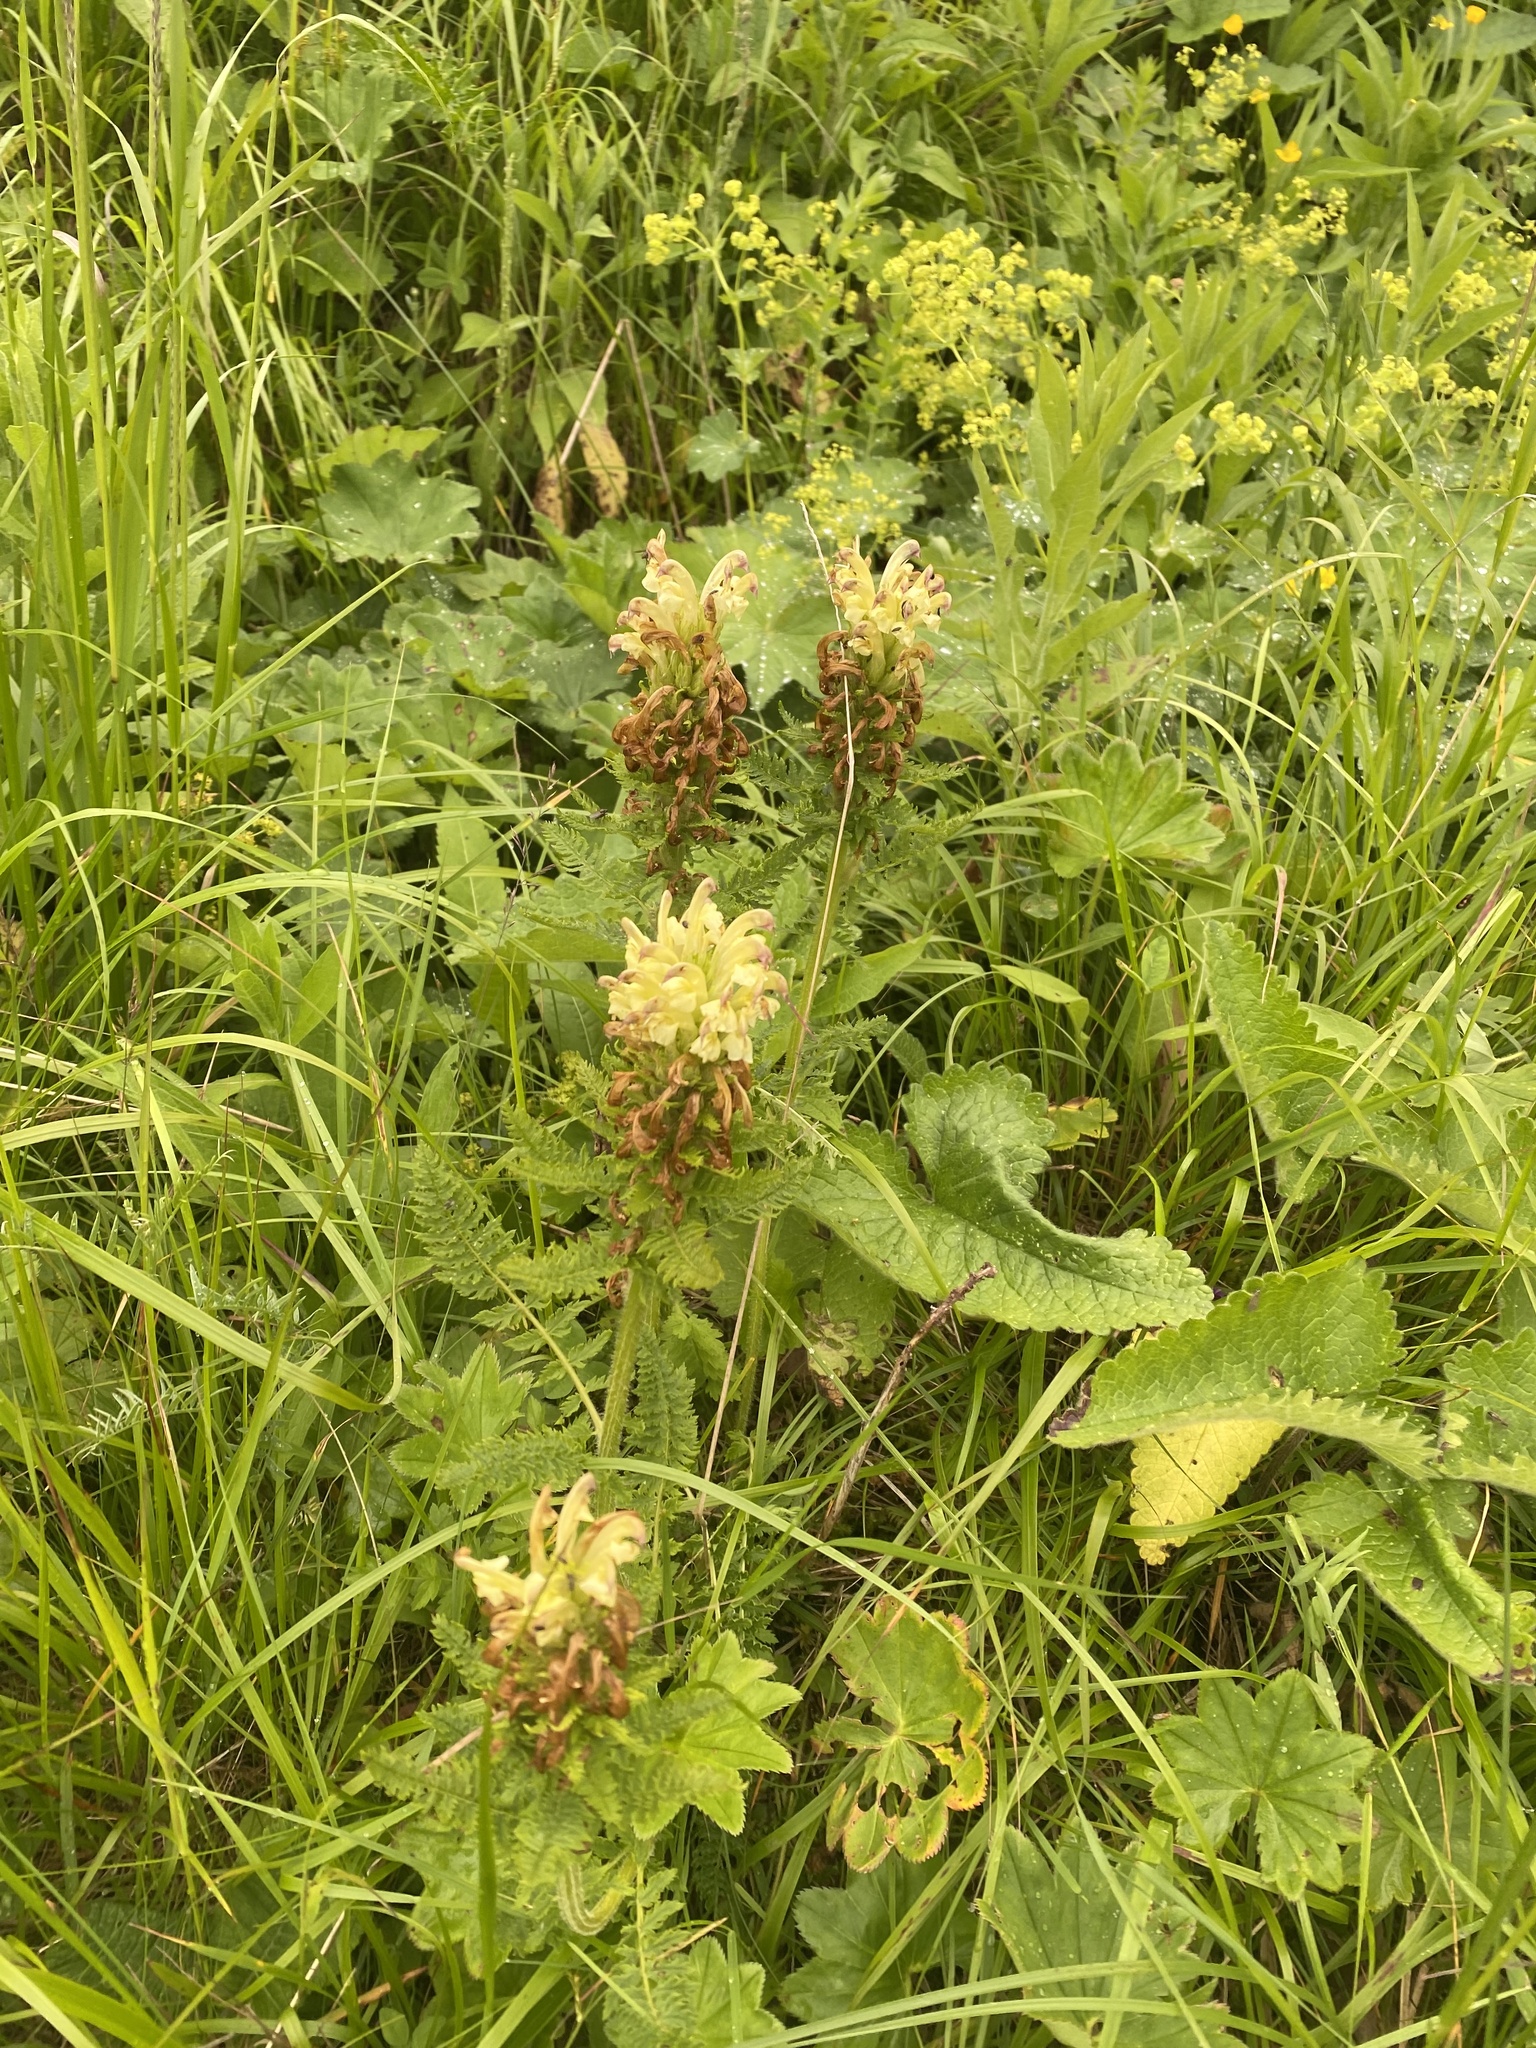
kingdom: Plantae
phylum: Tracheophyta
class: Magnoliopsida
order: Lamiales
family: Orobanchaceae
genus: Pedicularis
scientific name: Pedicularis chroorrhyncha
